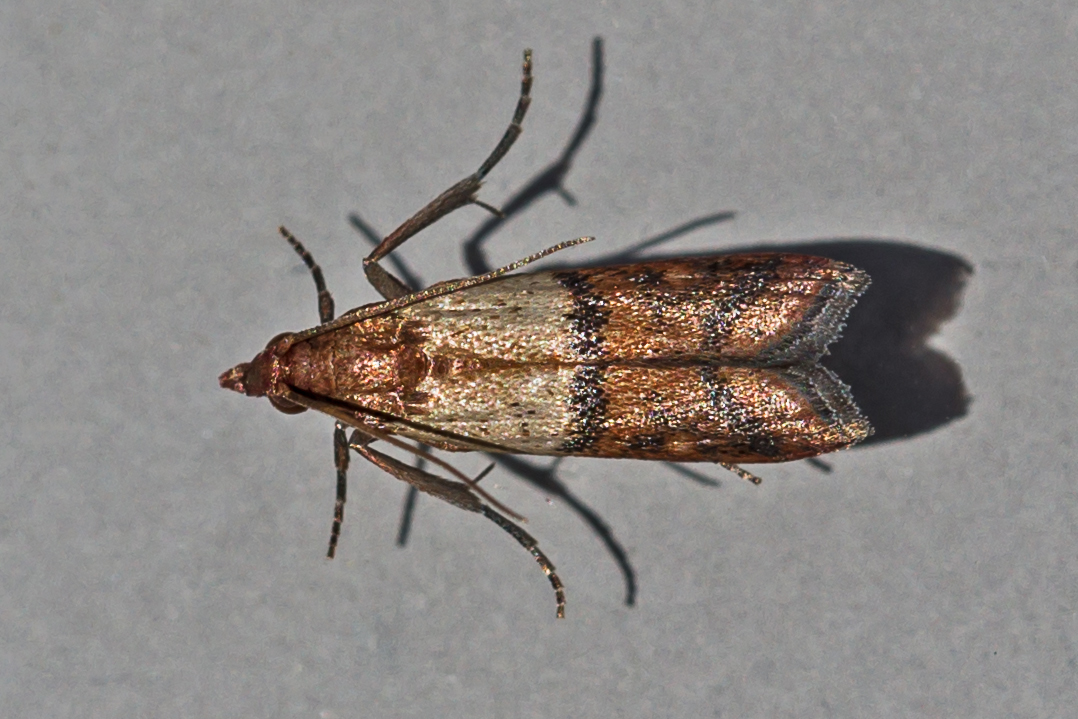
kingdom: Animalia
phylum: Arthropoda
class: Insecta
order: Lepidoptera
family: Pyralidae
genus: Plodia
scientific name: Plodia interpunctella
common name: Indian meal moth
